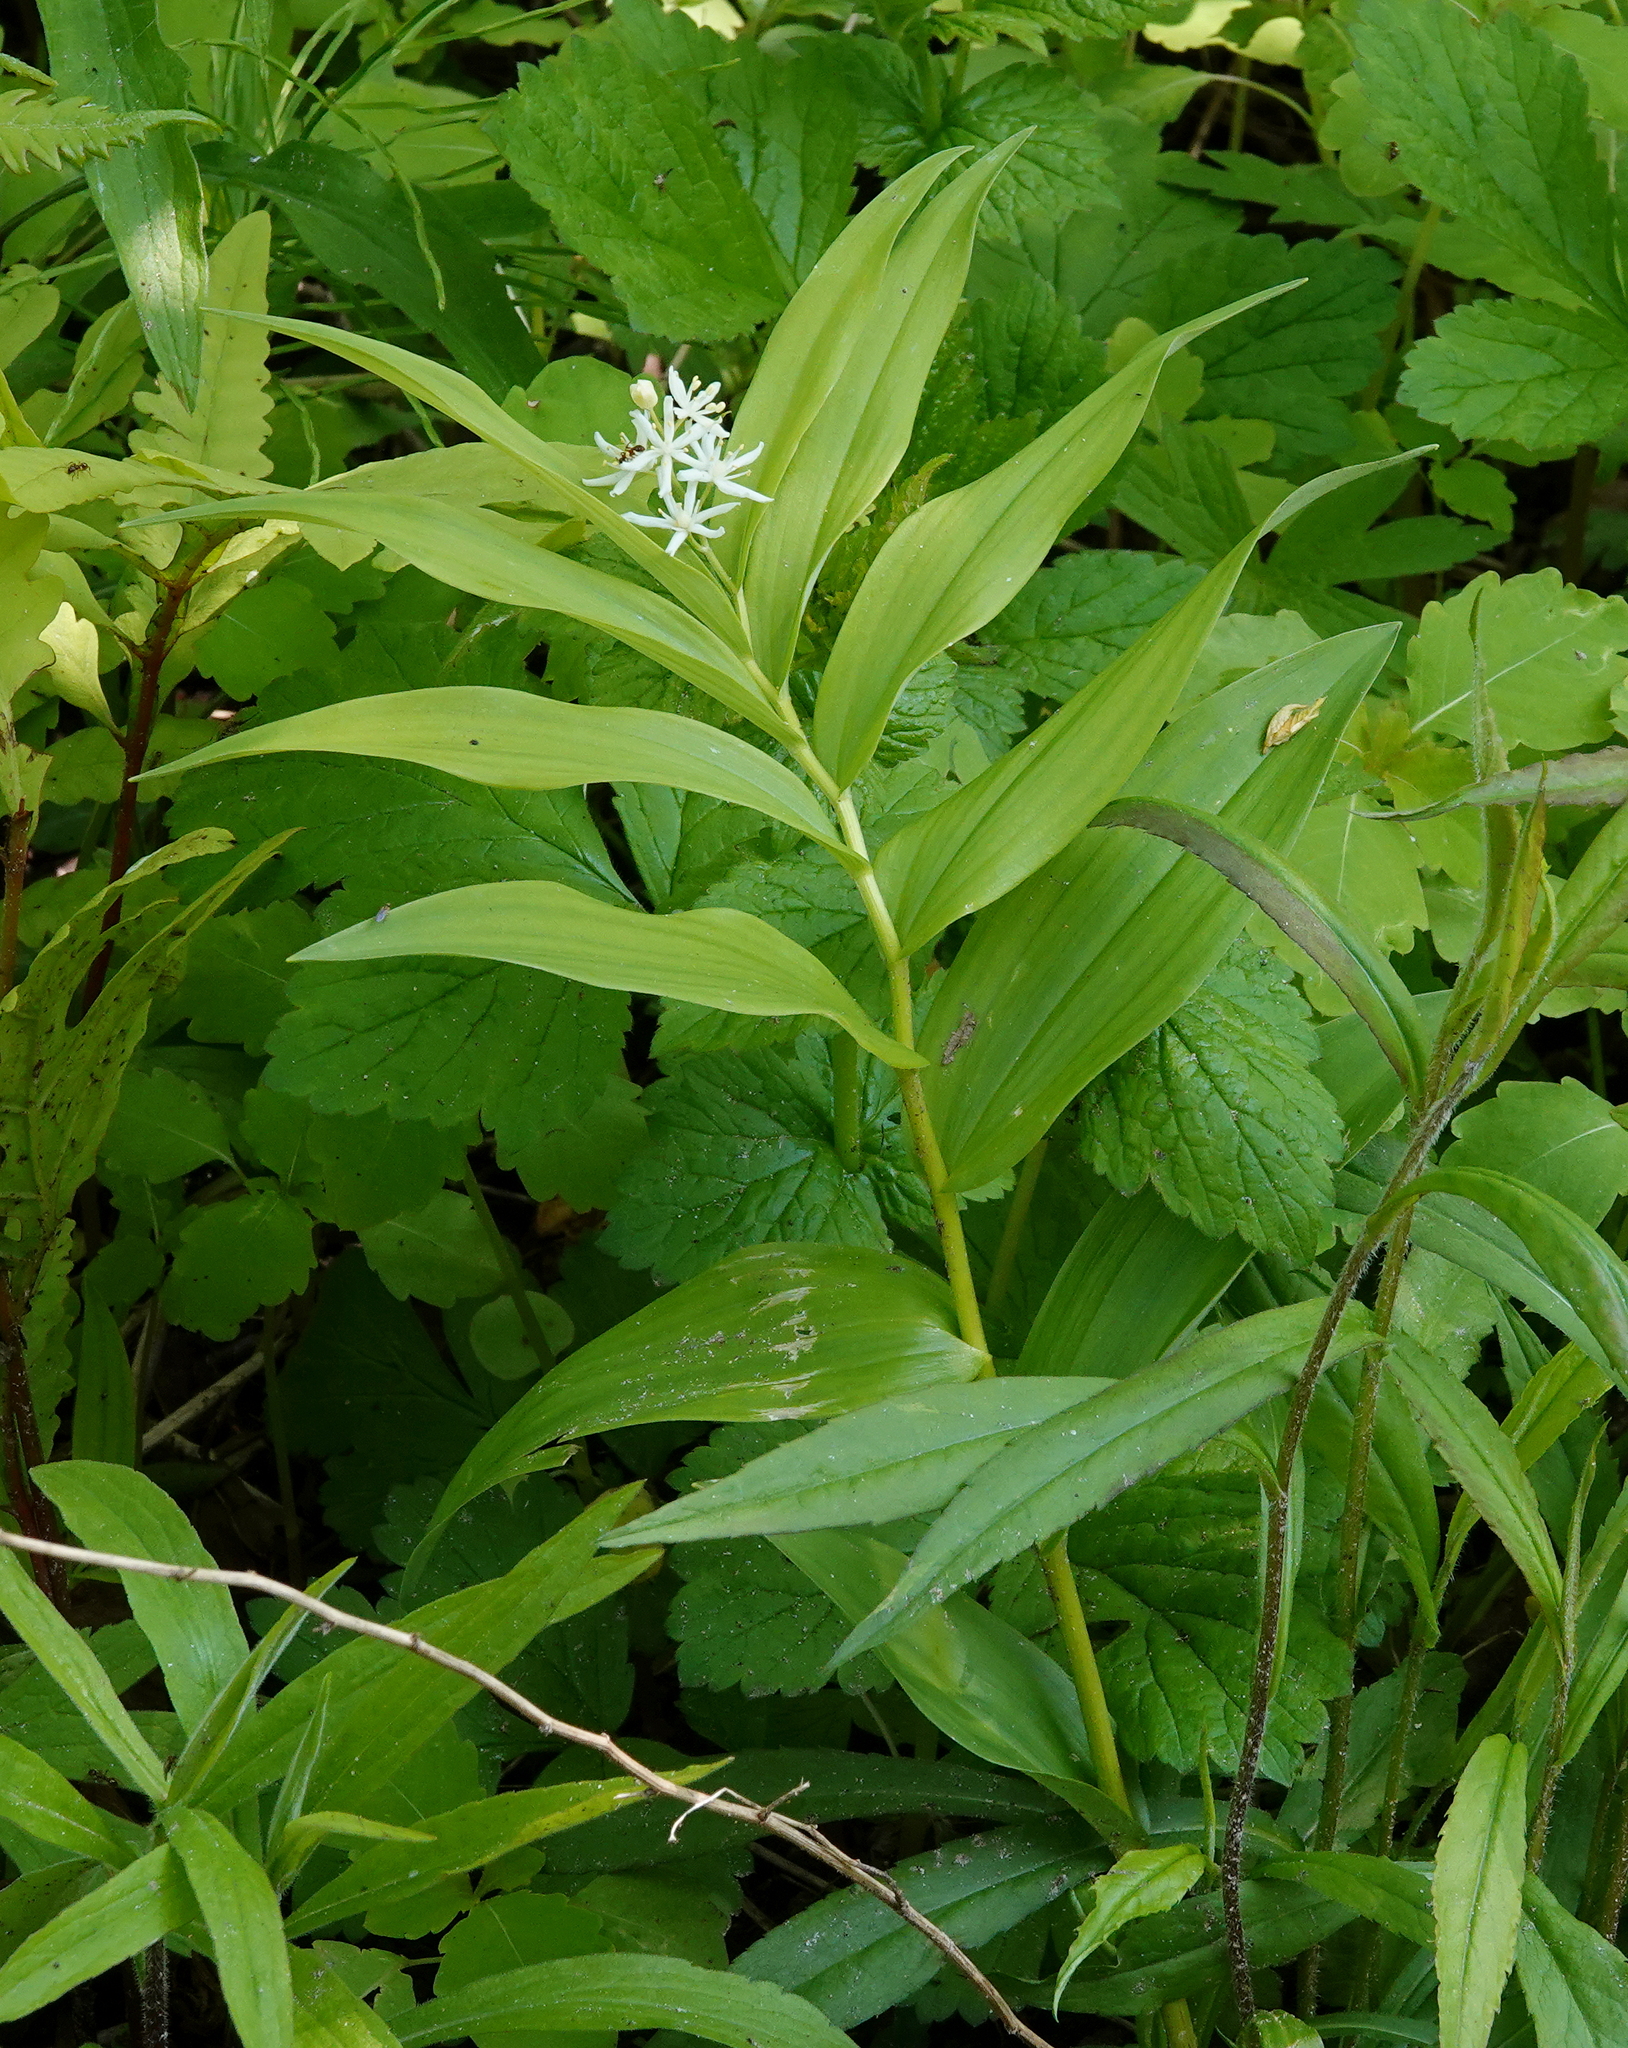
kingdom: Plantae
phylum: Tracheophyta
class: Liliopsida
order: Asparagales
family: Asparagaceae
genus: Maianthemum
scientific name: Maianthemum stellatum
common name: Little false solomon's seal
